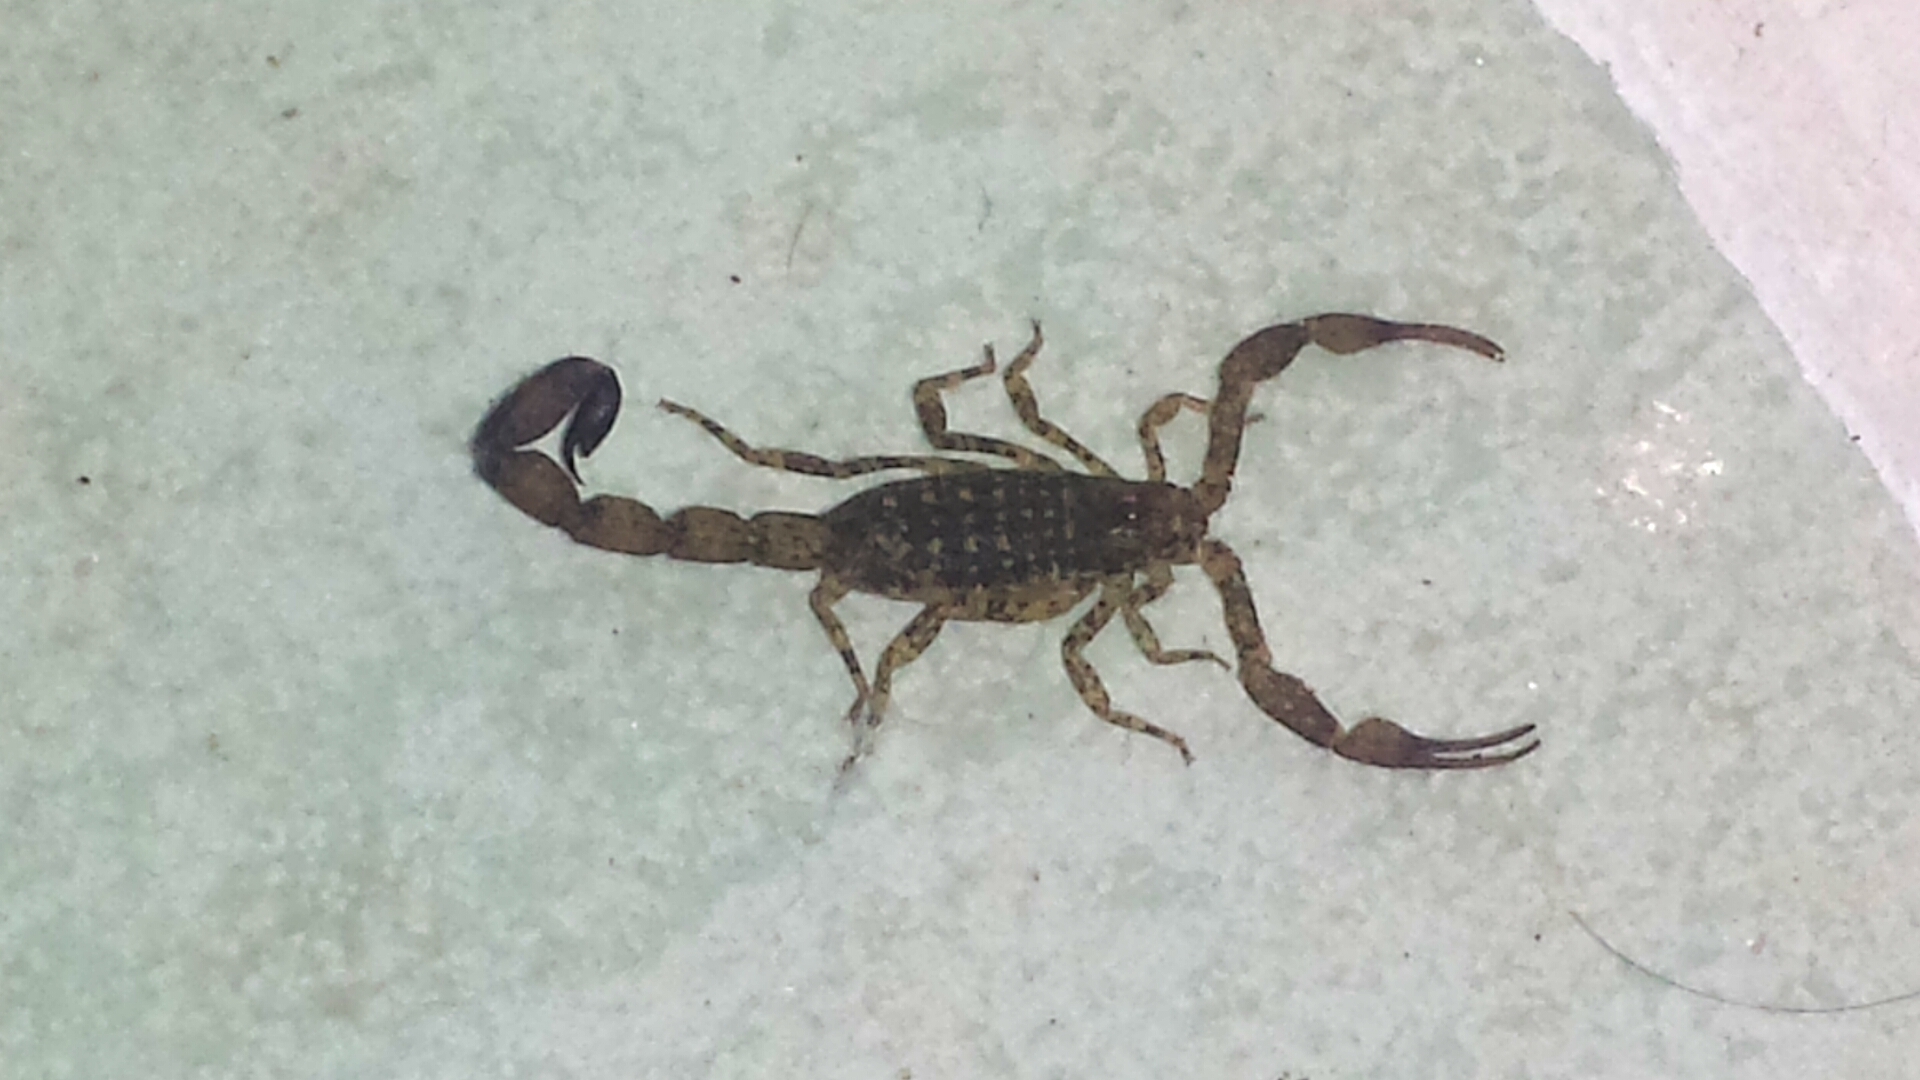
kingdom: Animalia
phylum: Arthropoda
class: Arachnida
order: Scorpiones
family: Buthidae
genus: Tityus
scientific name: Tityus tayrona
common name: Scorpiones
